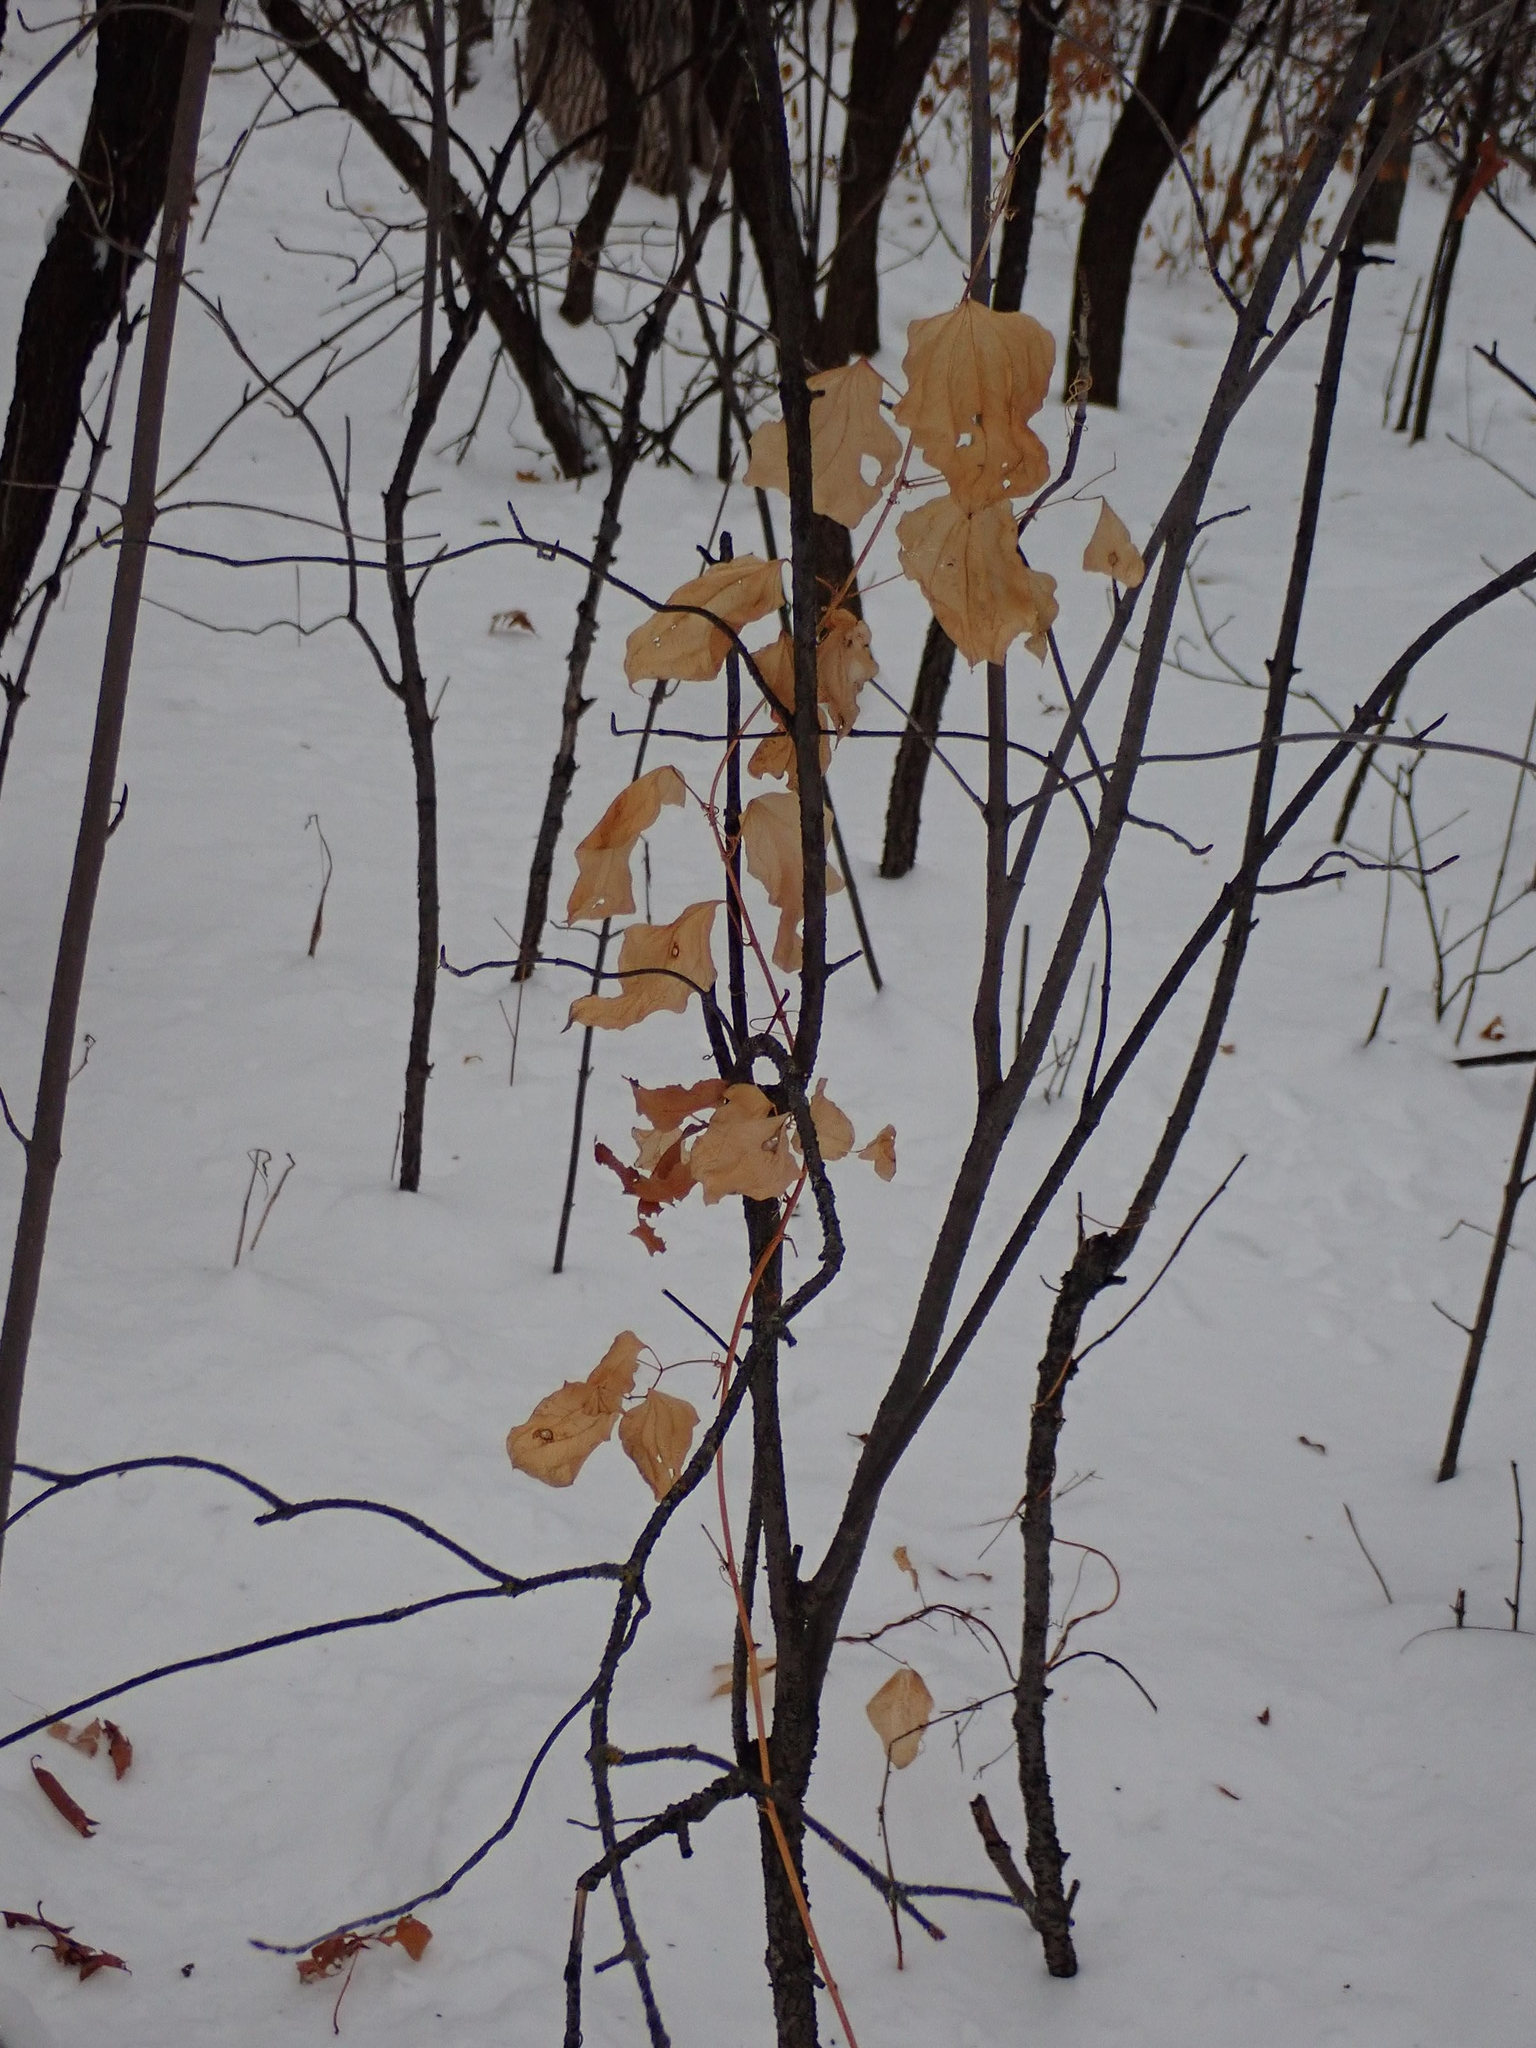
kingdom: Plantae
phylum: Tracheophyta
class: Liliopsida
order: Liliales
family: Smilacaceae
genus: Smilax
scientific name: Smilax lasioneura
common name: Blue ridge carrionflower
